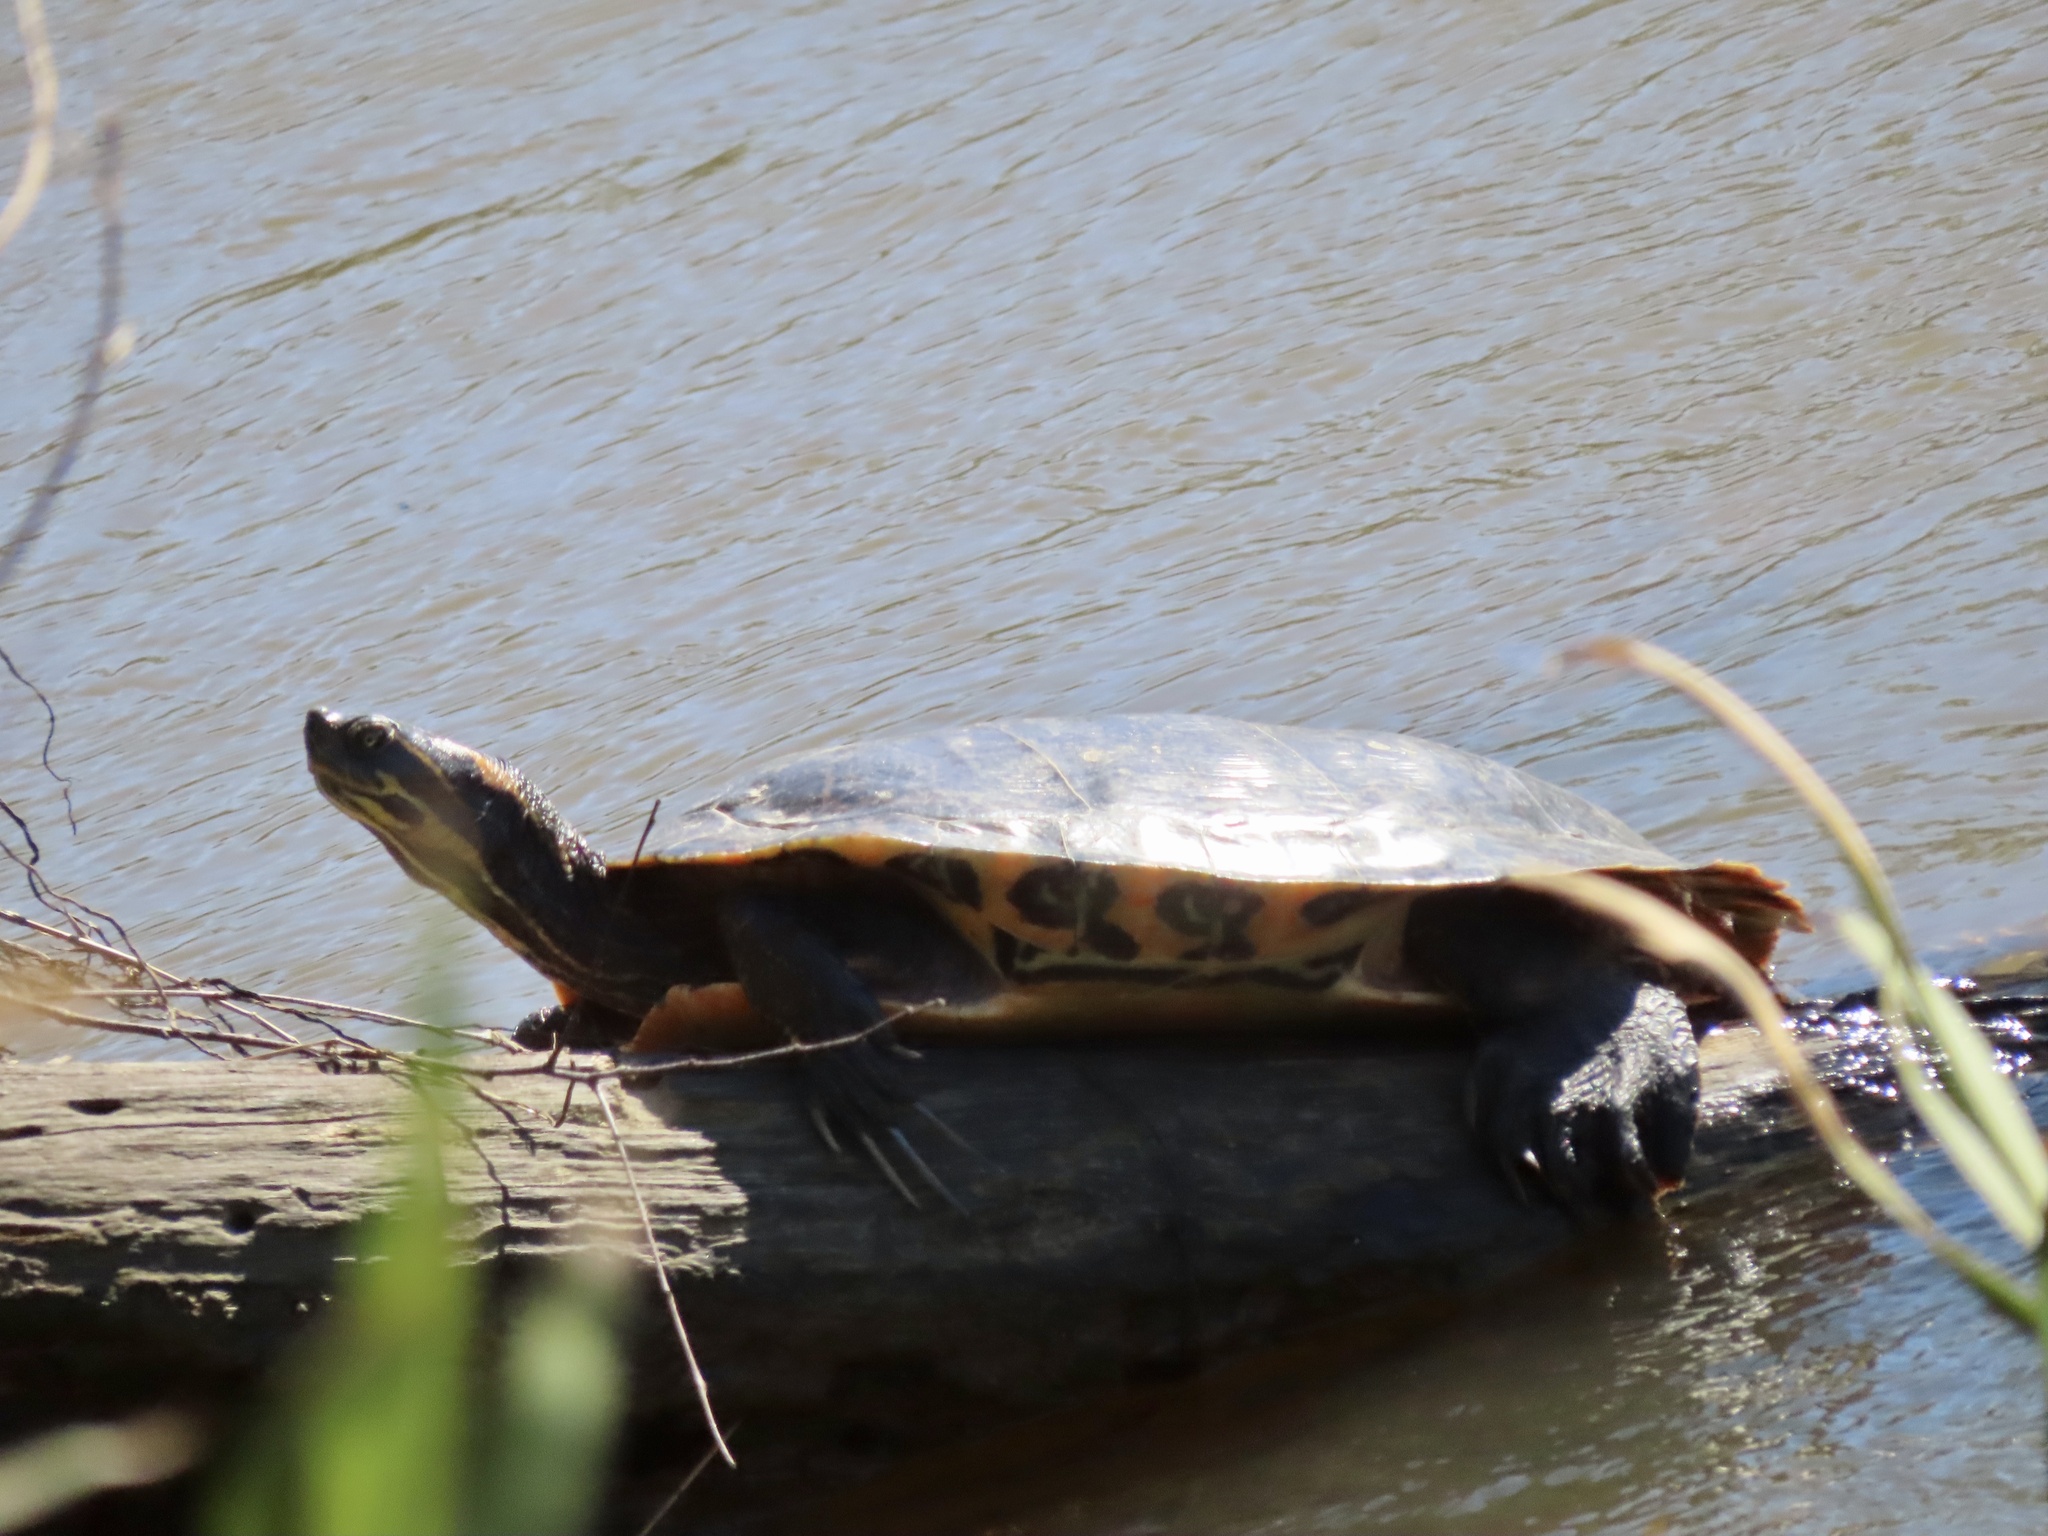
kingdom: Animalia
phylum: Chordata
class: Testudines
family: Emydidae
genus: Pseudemys
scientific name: Pseudemys concinna
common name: Eastern river cooter
